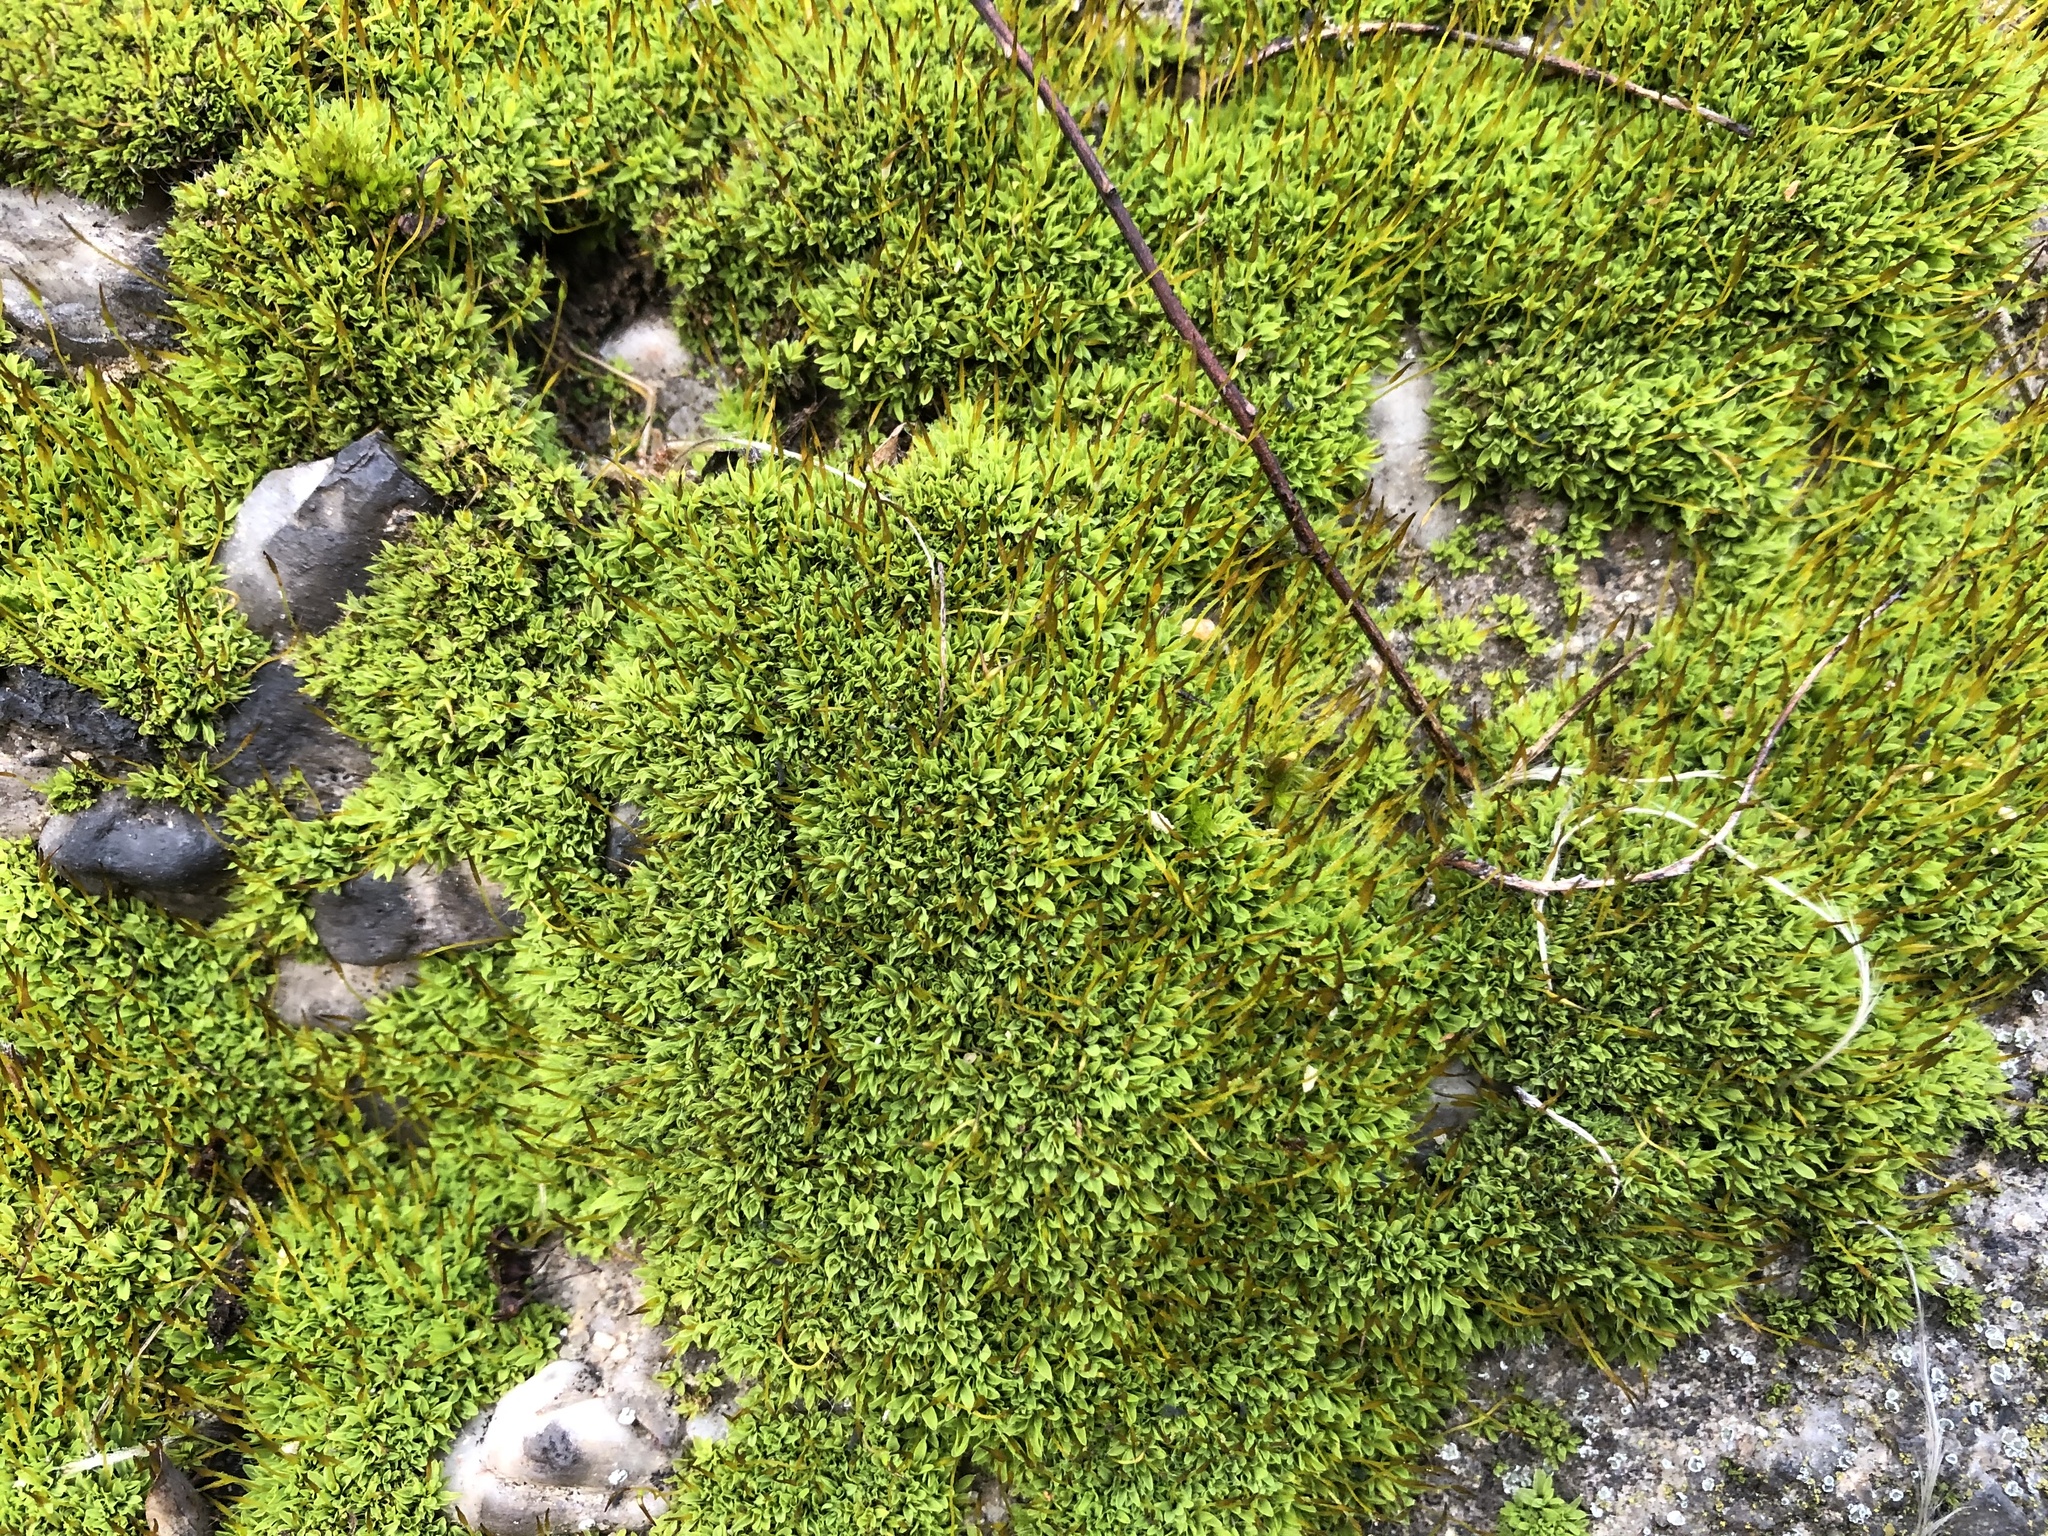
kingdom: Plantae
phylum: Bryophyta
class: Bryopsida
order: Pottiales
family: Pottiaceae
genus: Tortula
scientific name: Tortula muralis
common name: Wall screw-moss
